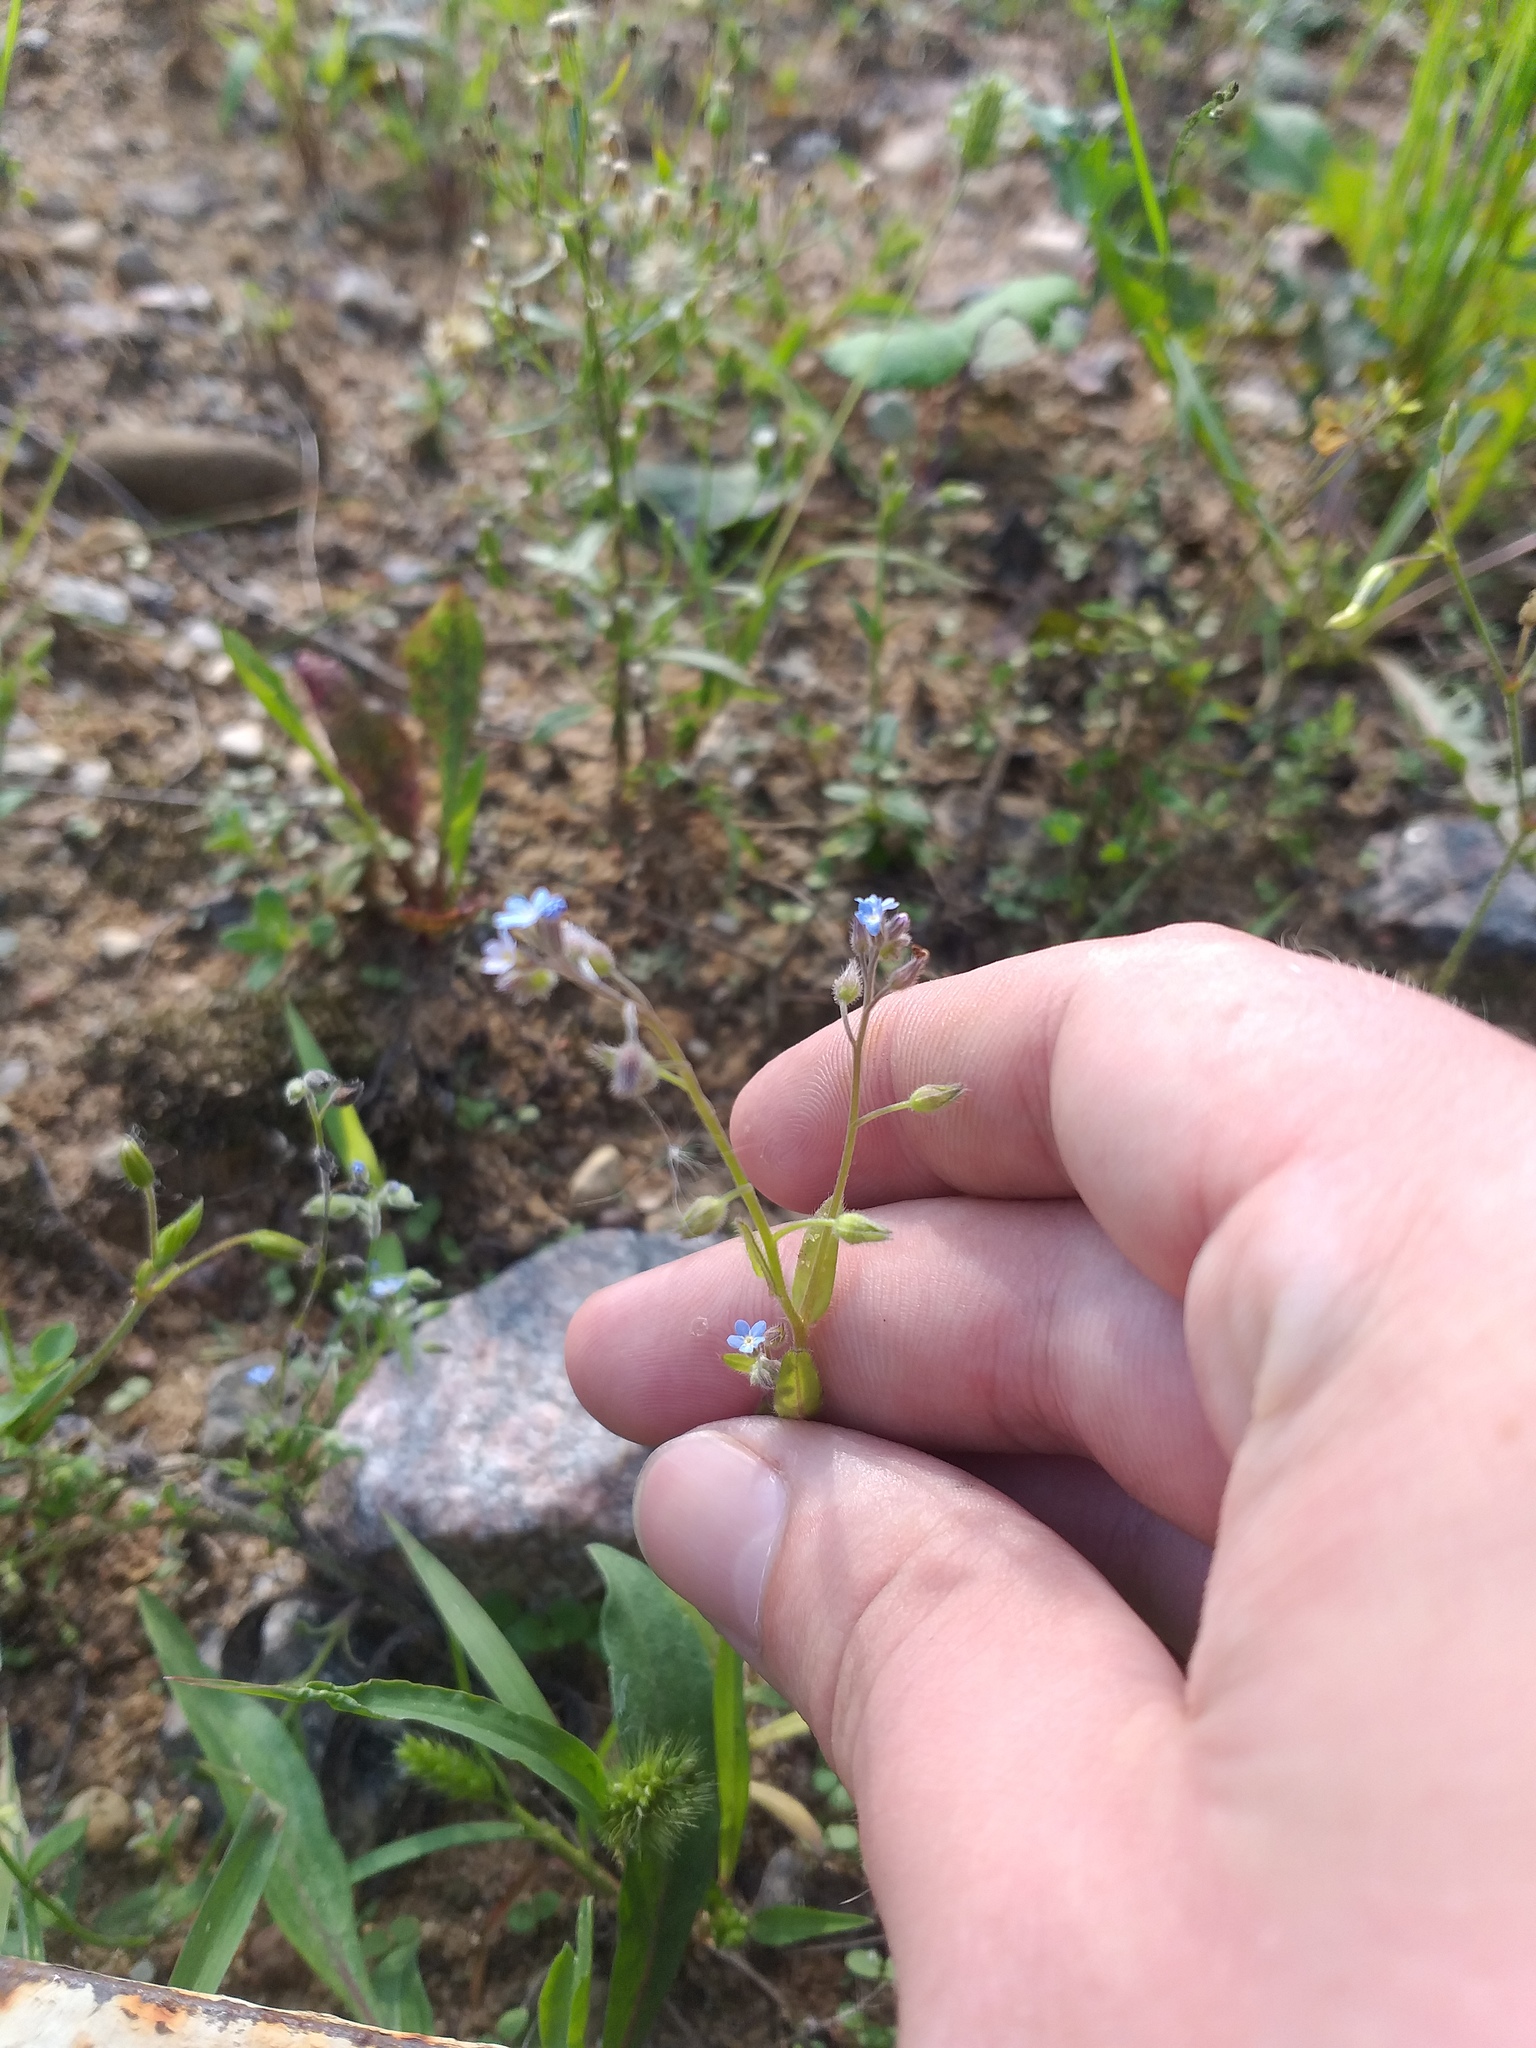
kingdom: Plantae
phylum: Tracheophyta
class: Magnoliopsida
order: Boraginales
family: Boraginaceae
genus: Myosotis
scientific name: Myosotis arvensis
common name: Field forget-me-not
